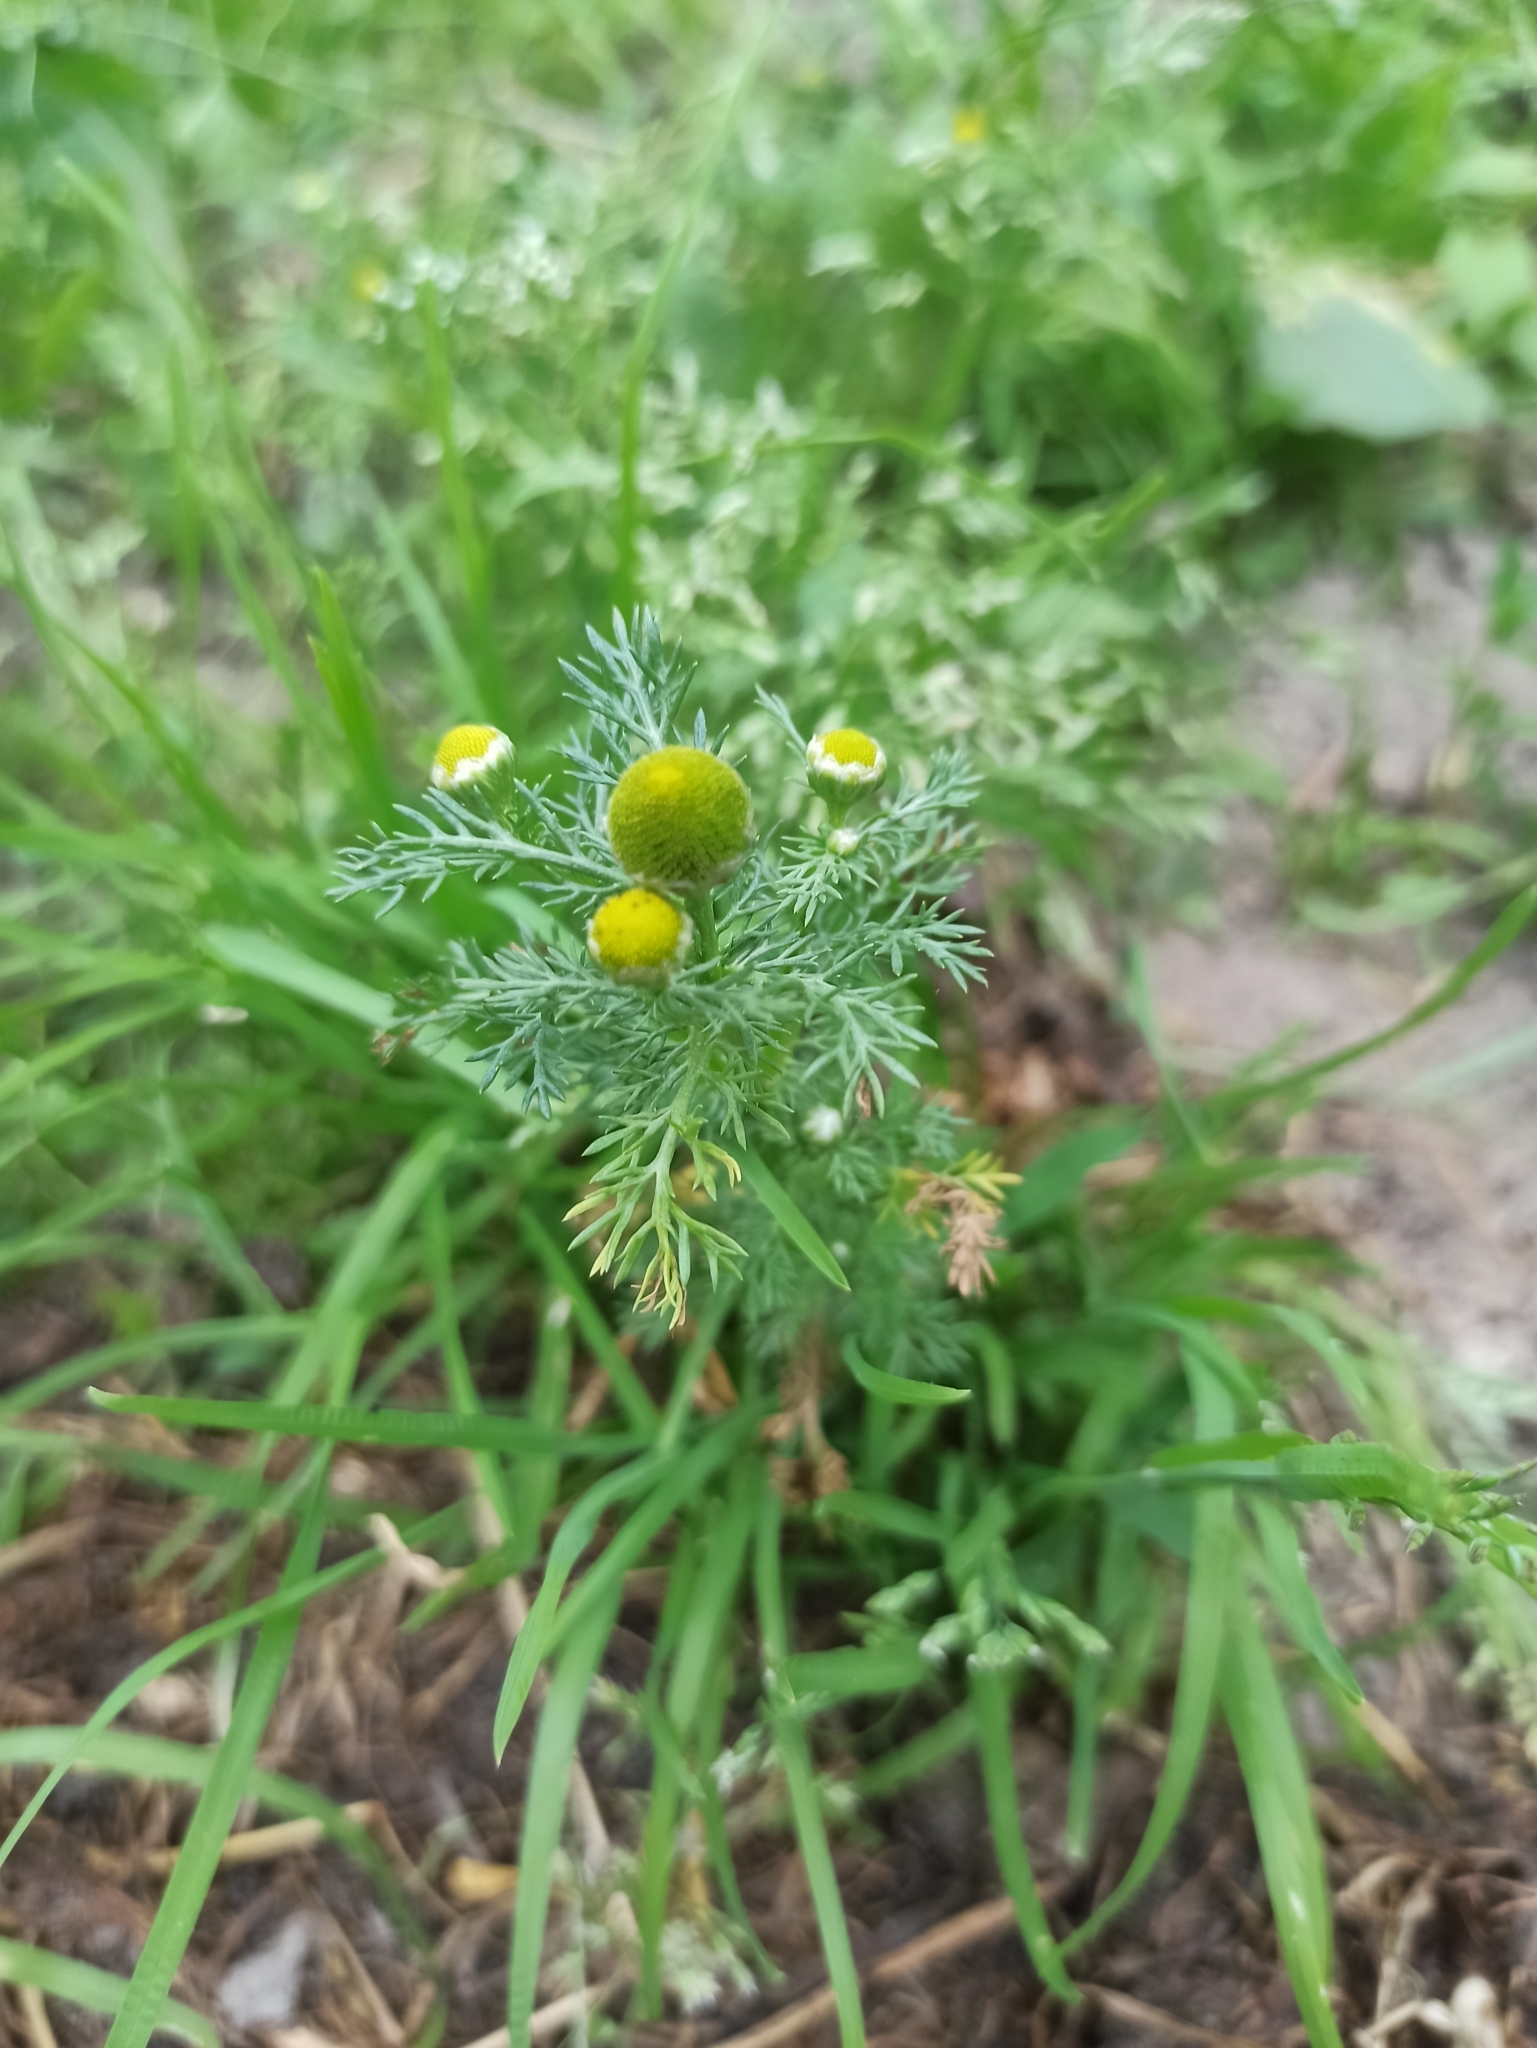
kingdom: Plantae
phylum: Tracheophyta
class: Magnoliopsida
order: Asterales
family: Asteraceae
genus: Matricaria
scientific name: Matricaria discoidea
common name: Disc mayweed
